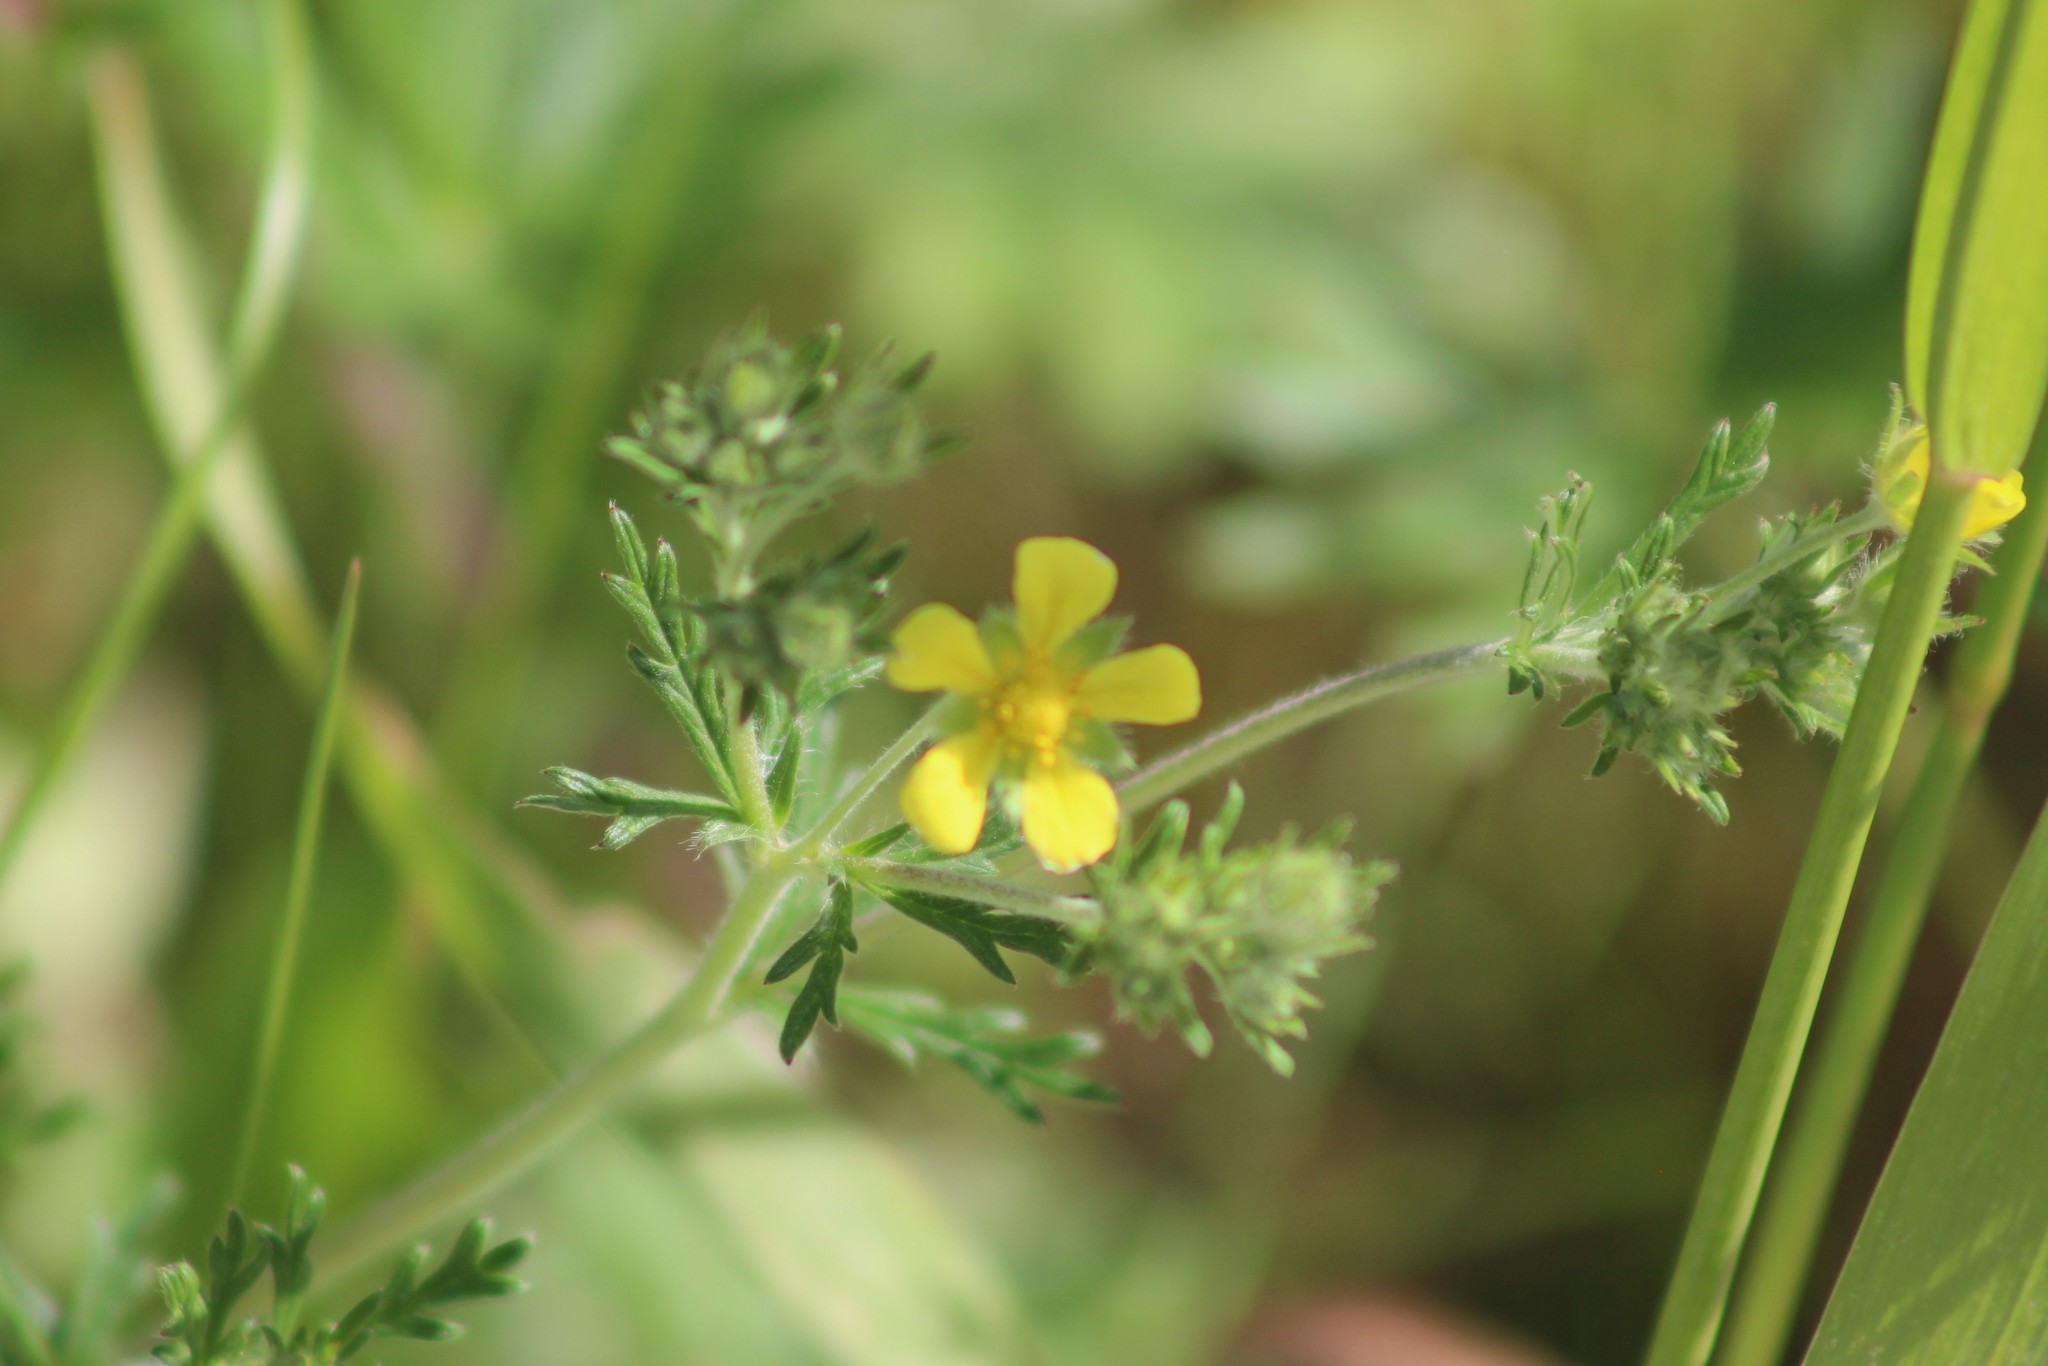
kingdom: Plantae
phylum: Tracheophyta
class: Magnoliopsida
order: Rosales
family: Rosaceae
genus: Potentilla
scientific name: Potentilla argentea
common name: Hoary cinquefoil
